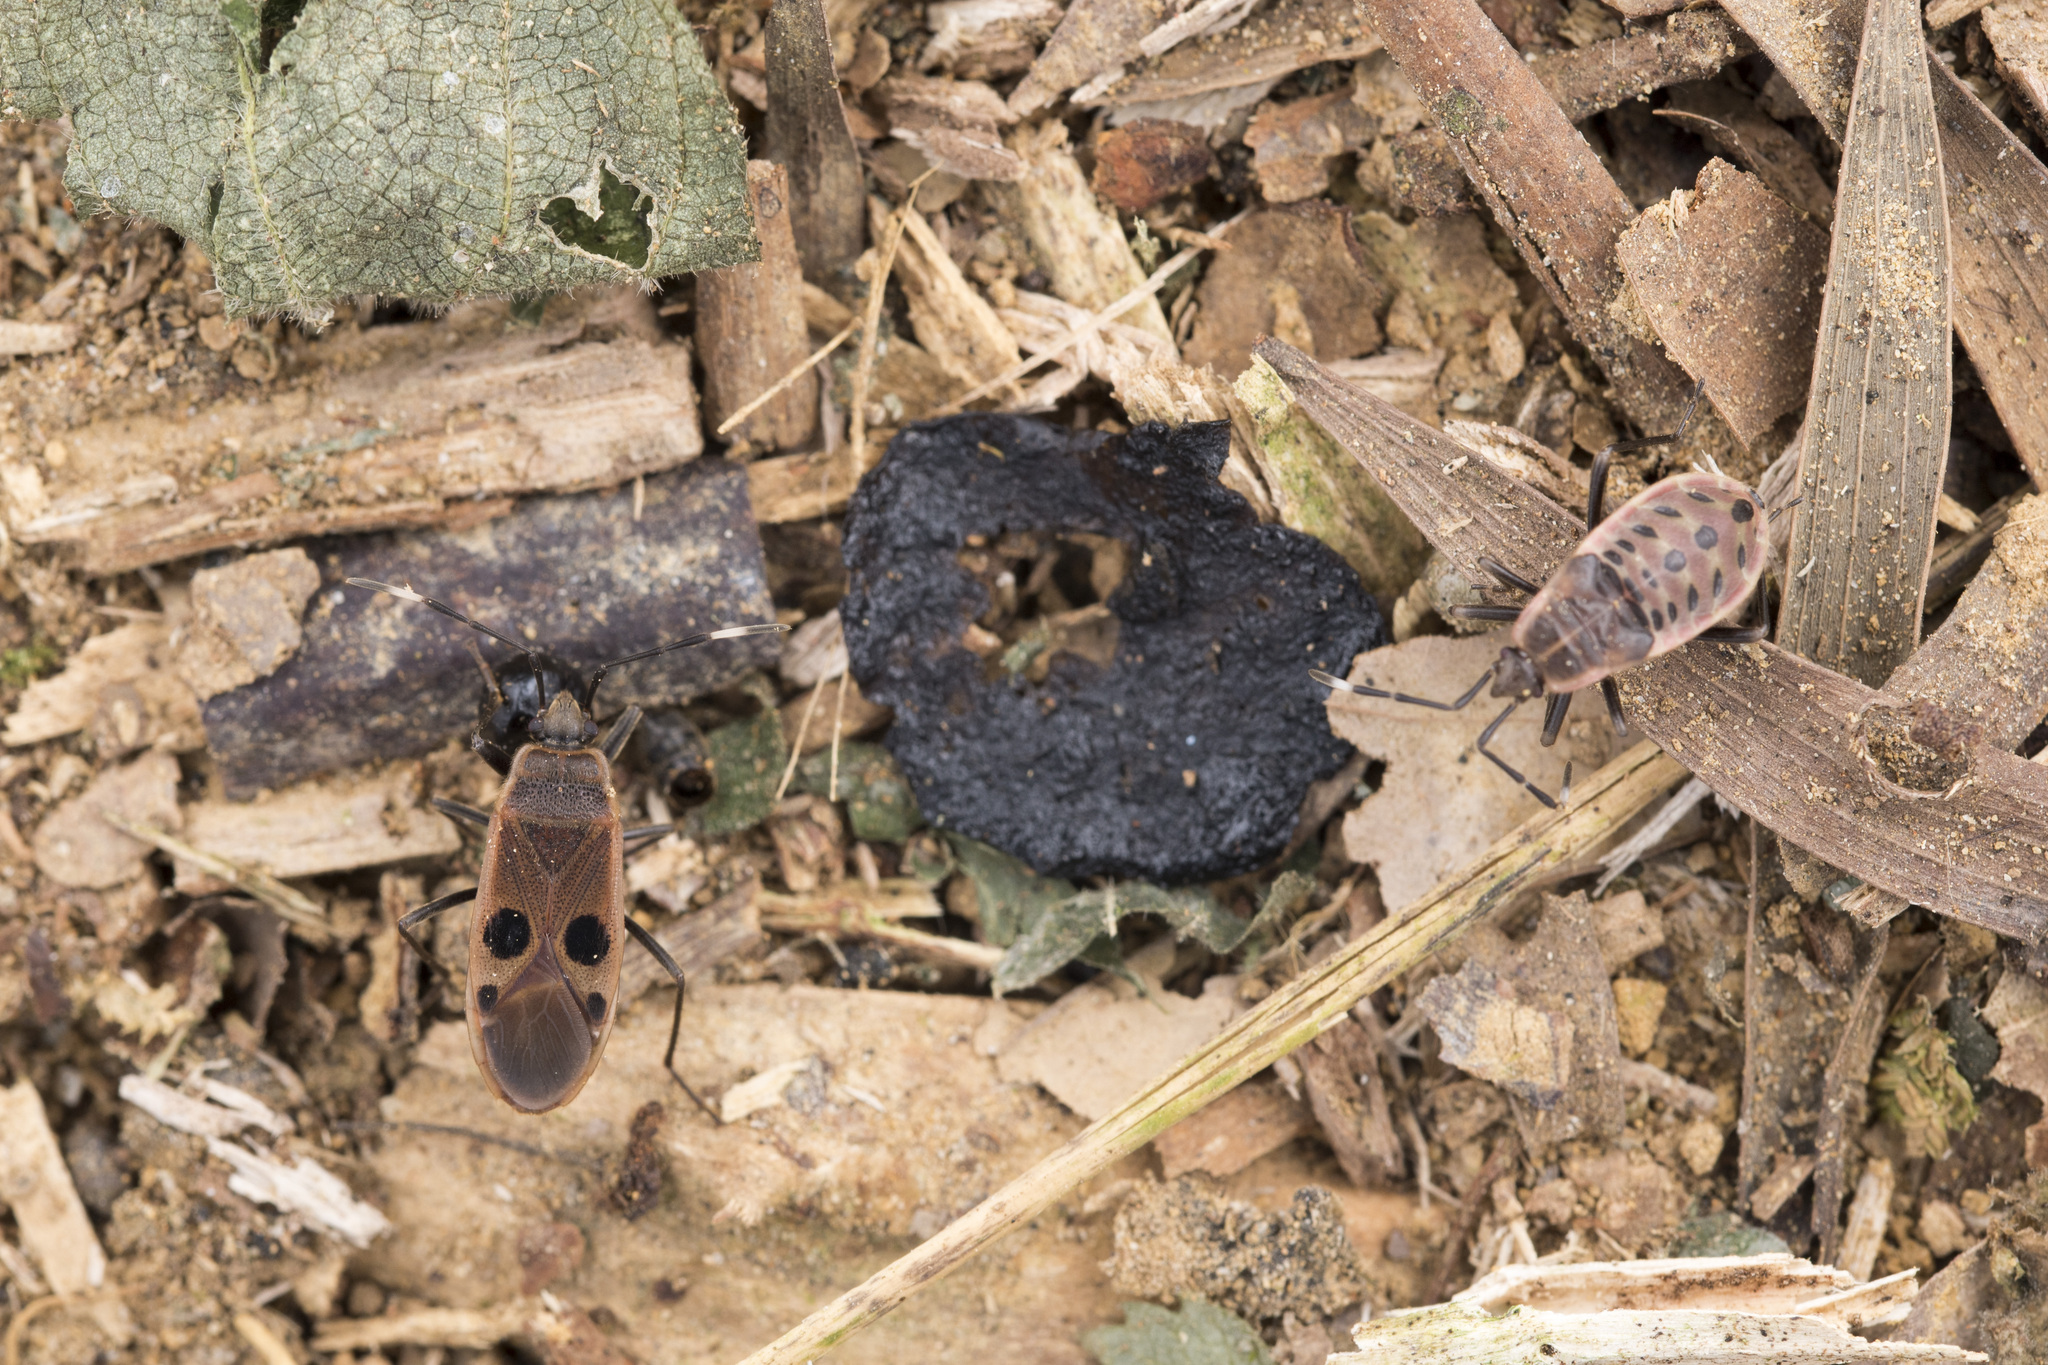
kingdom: Animalia
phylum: Arthropoda
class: Insecta
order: Hemiptera
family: Largidae
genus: Physopelta
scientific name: Physopelta fusciscutellata
